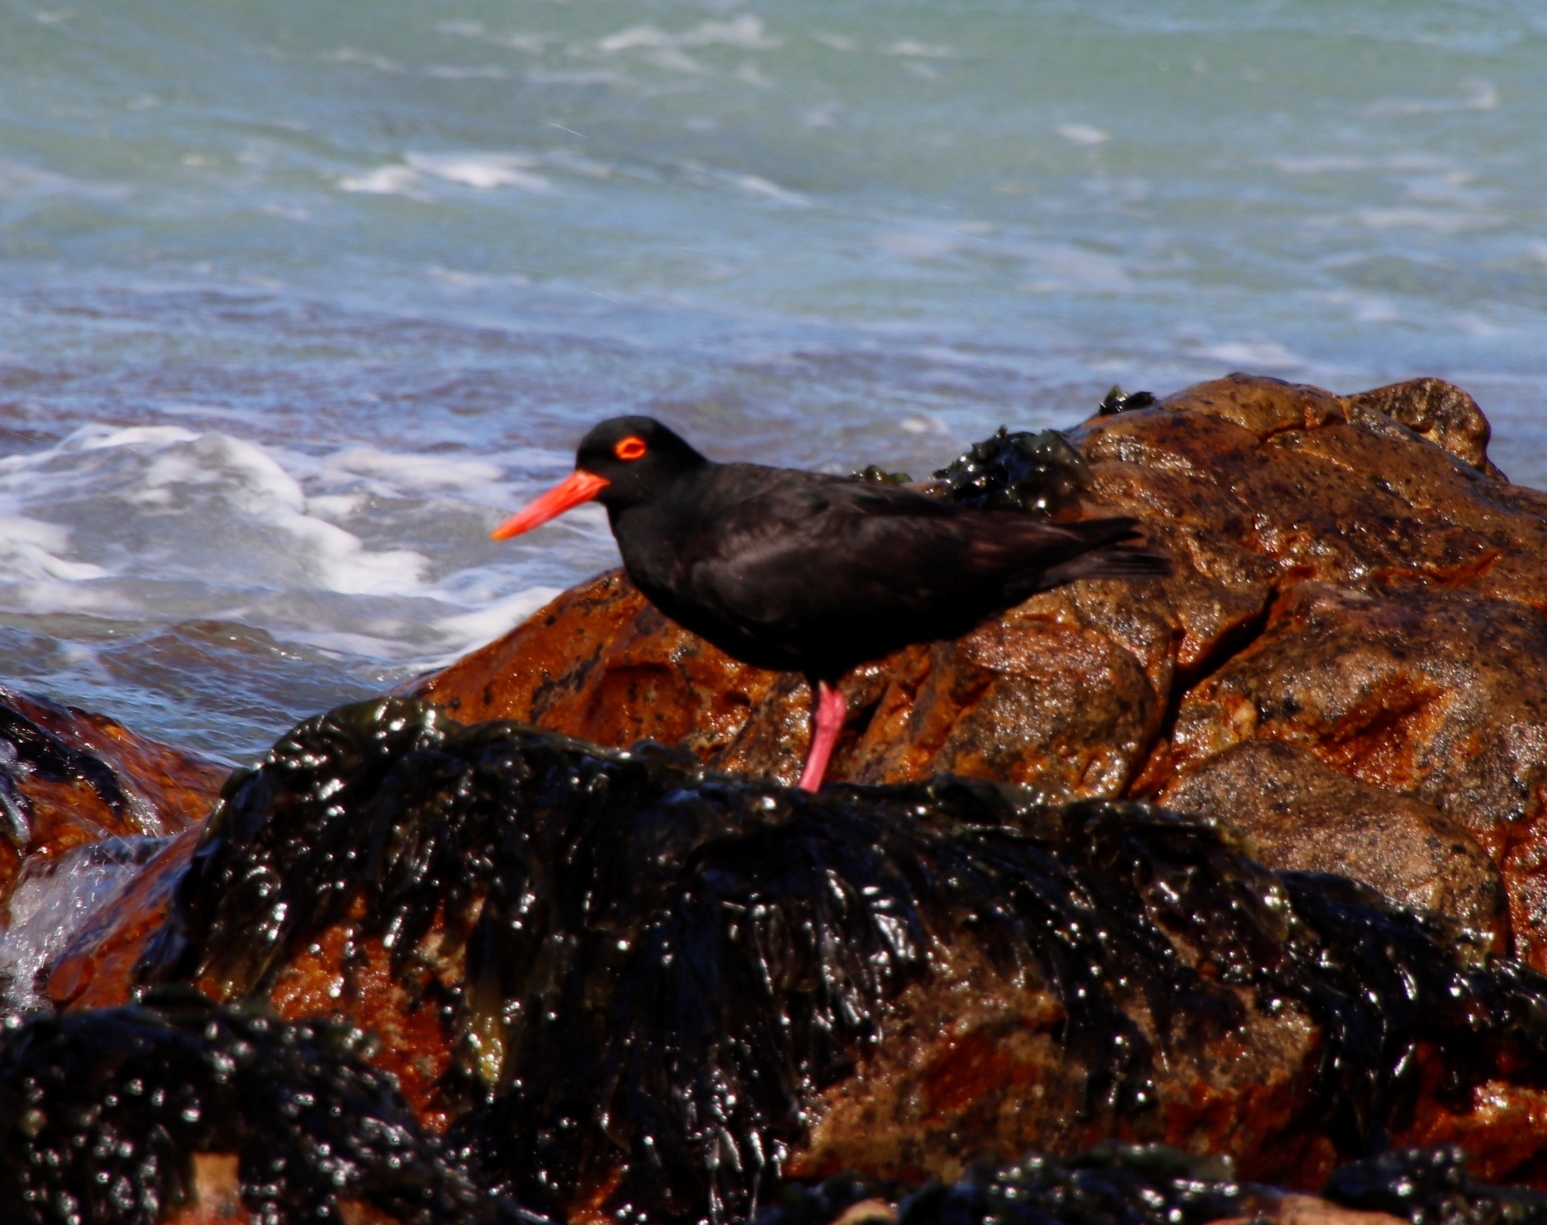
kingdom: Animalia
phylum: Chordata
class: Aves
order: Charadriiformes
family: Haematopodidae
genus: Haematopus
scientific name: Haematopus moquini
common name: African oystercatcher
